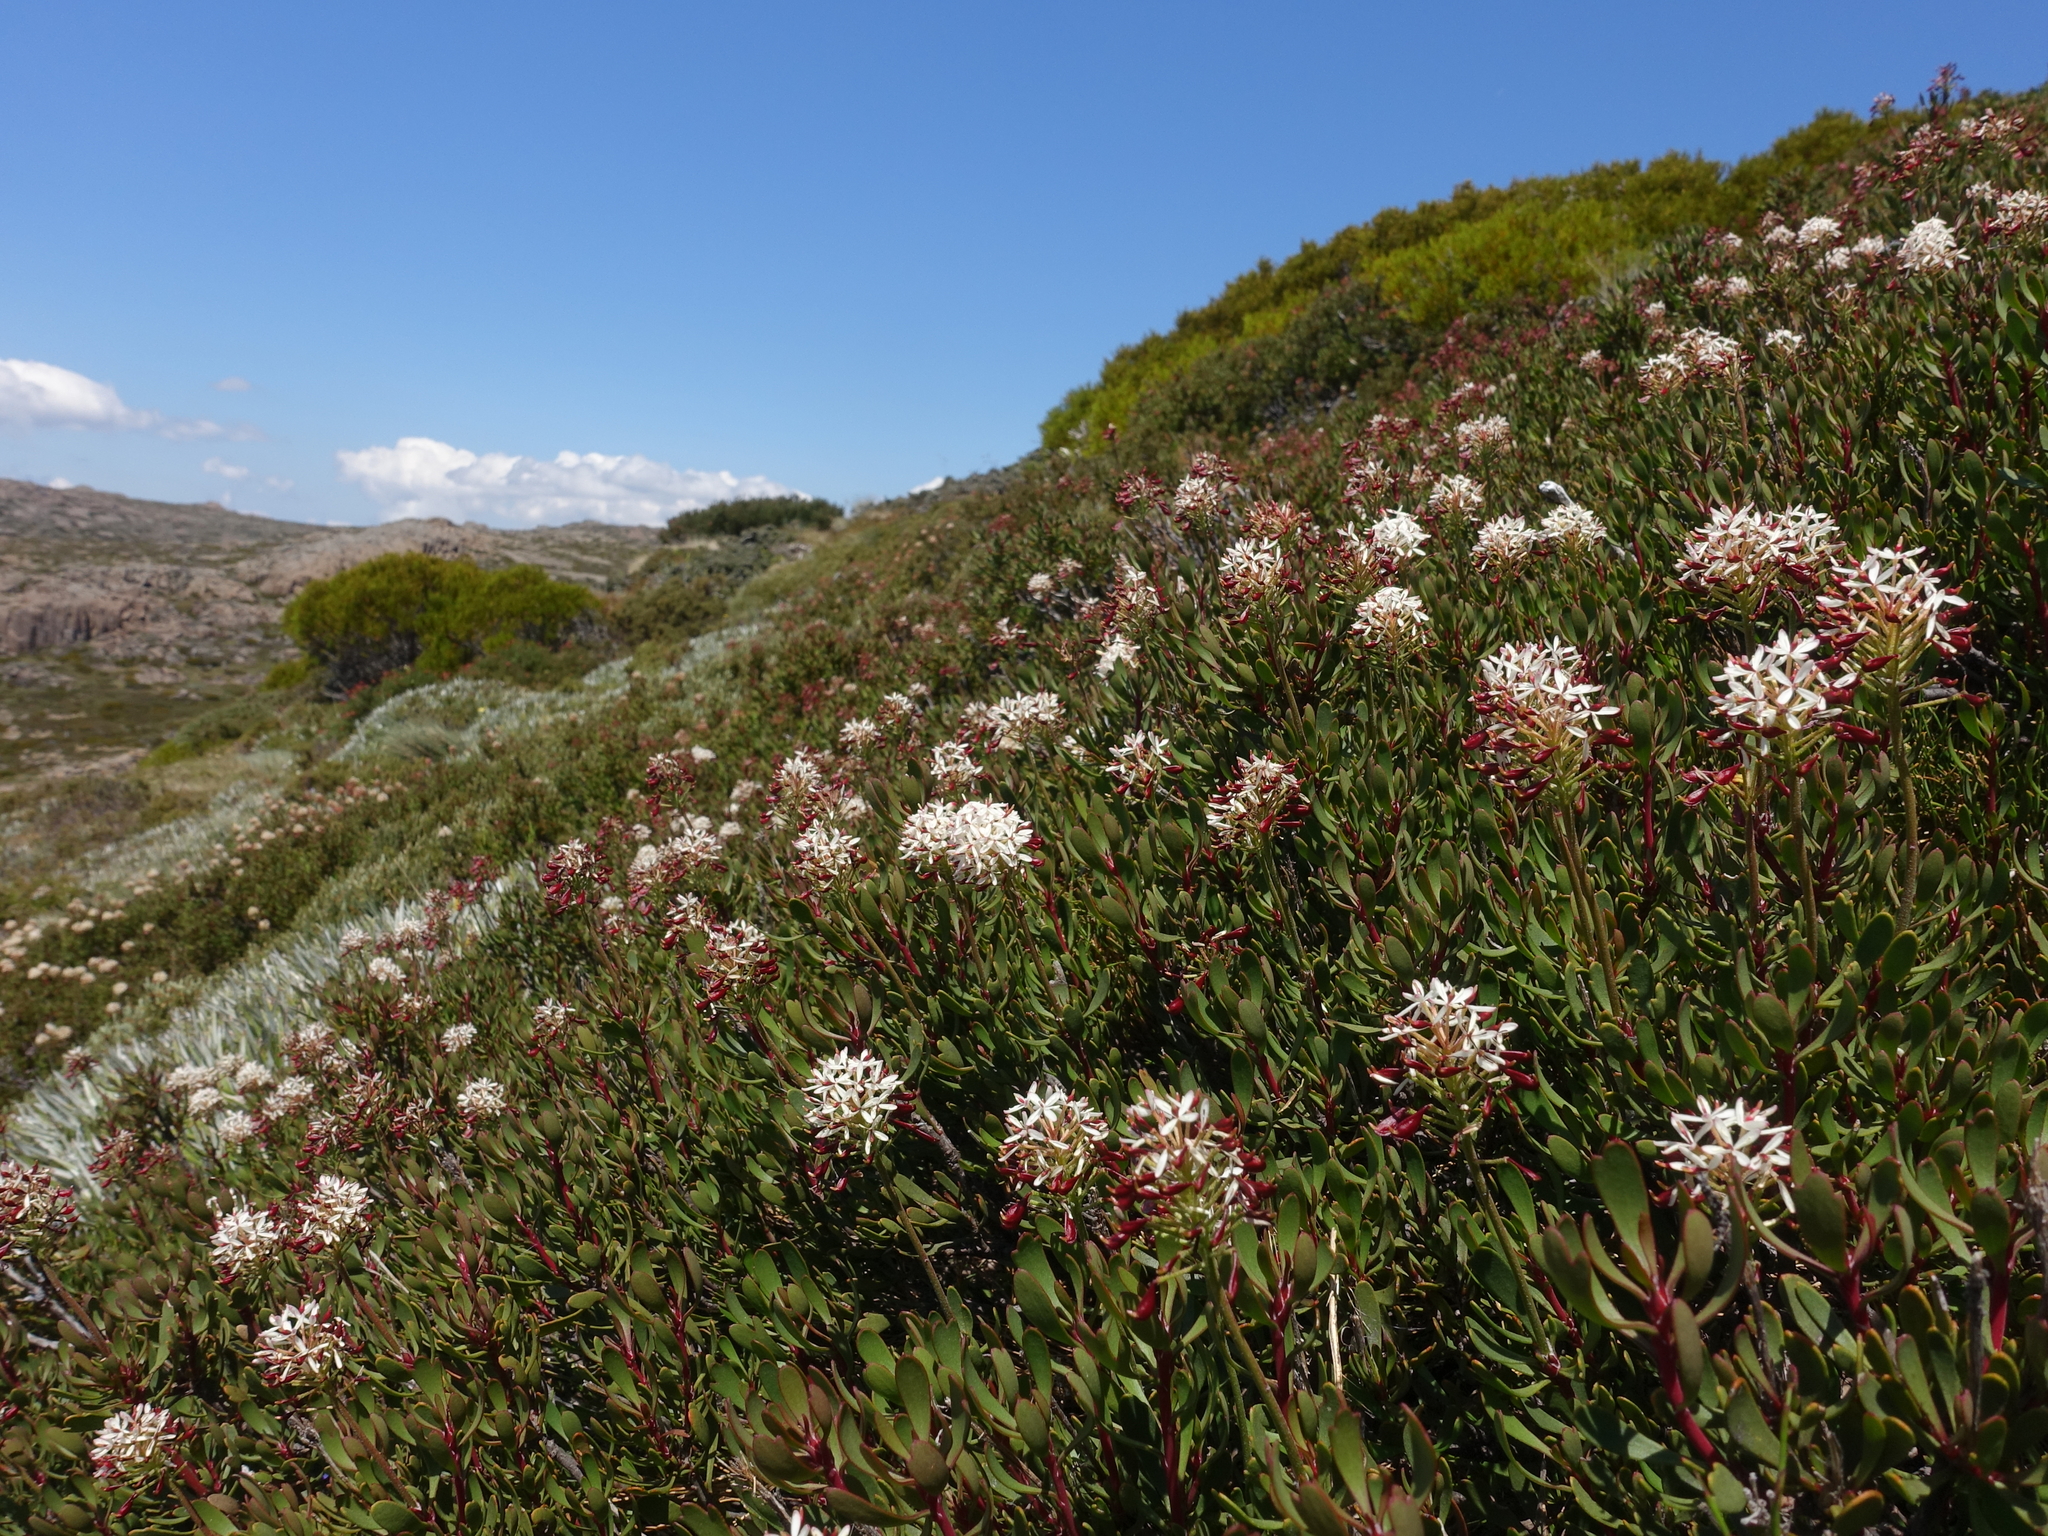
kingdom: Plantae
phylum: Tracheophyta
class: Magnoliopsida
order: Proteales
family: Proteaceae
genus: Bellendena
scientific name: Bellendena montana
